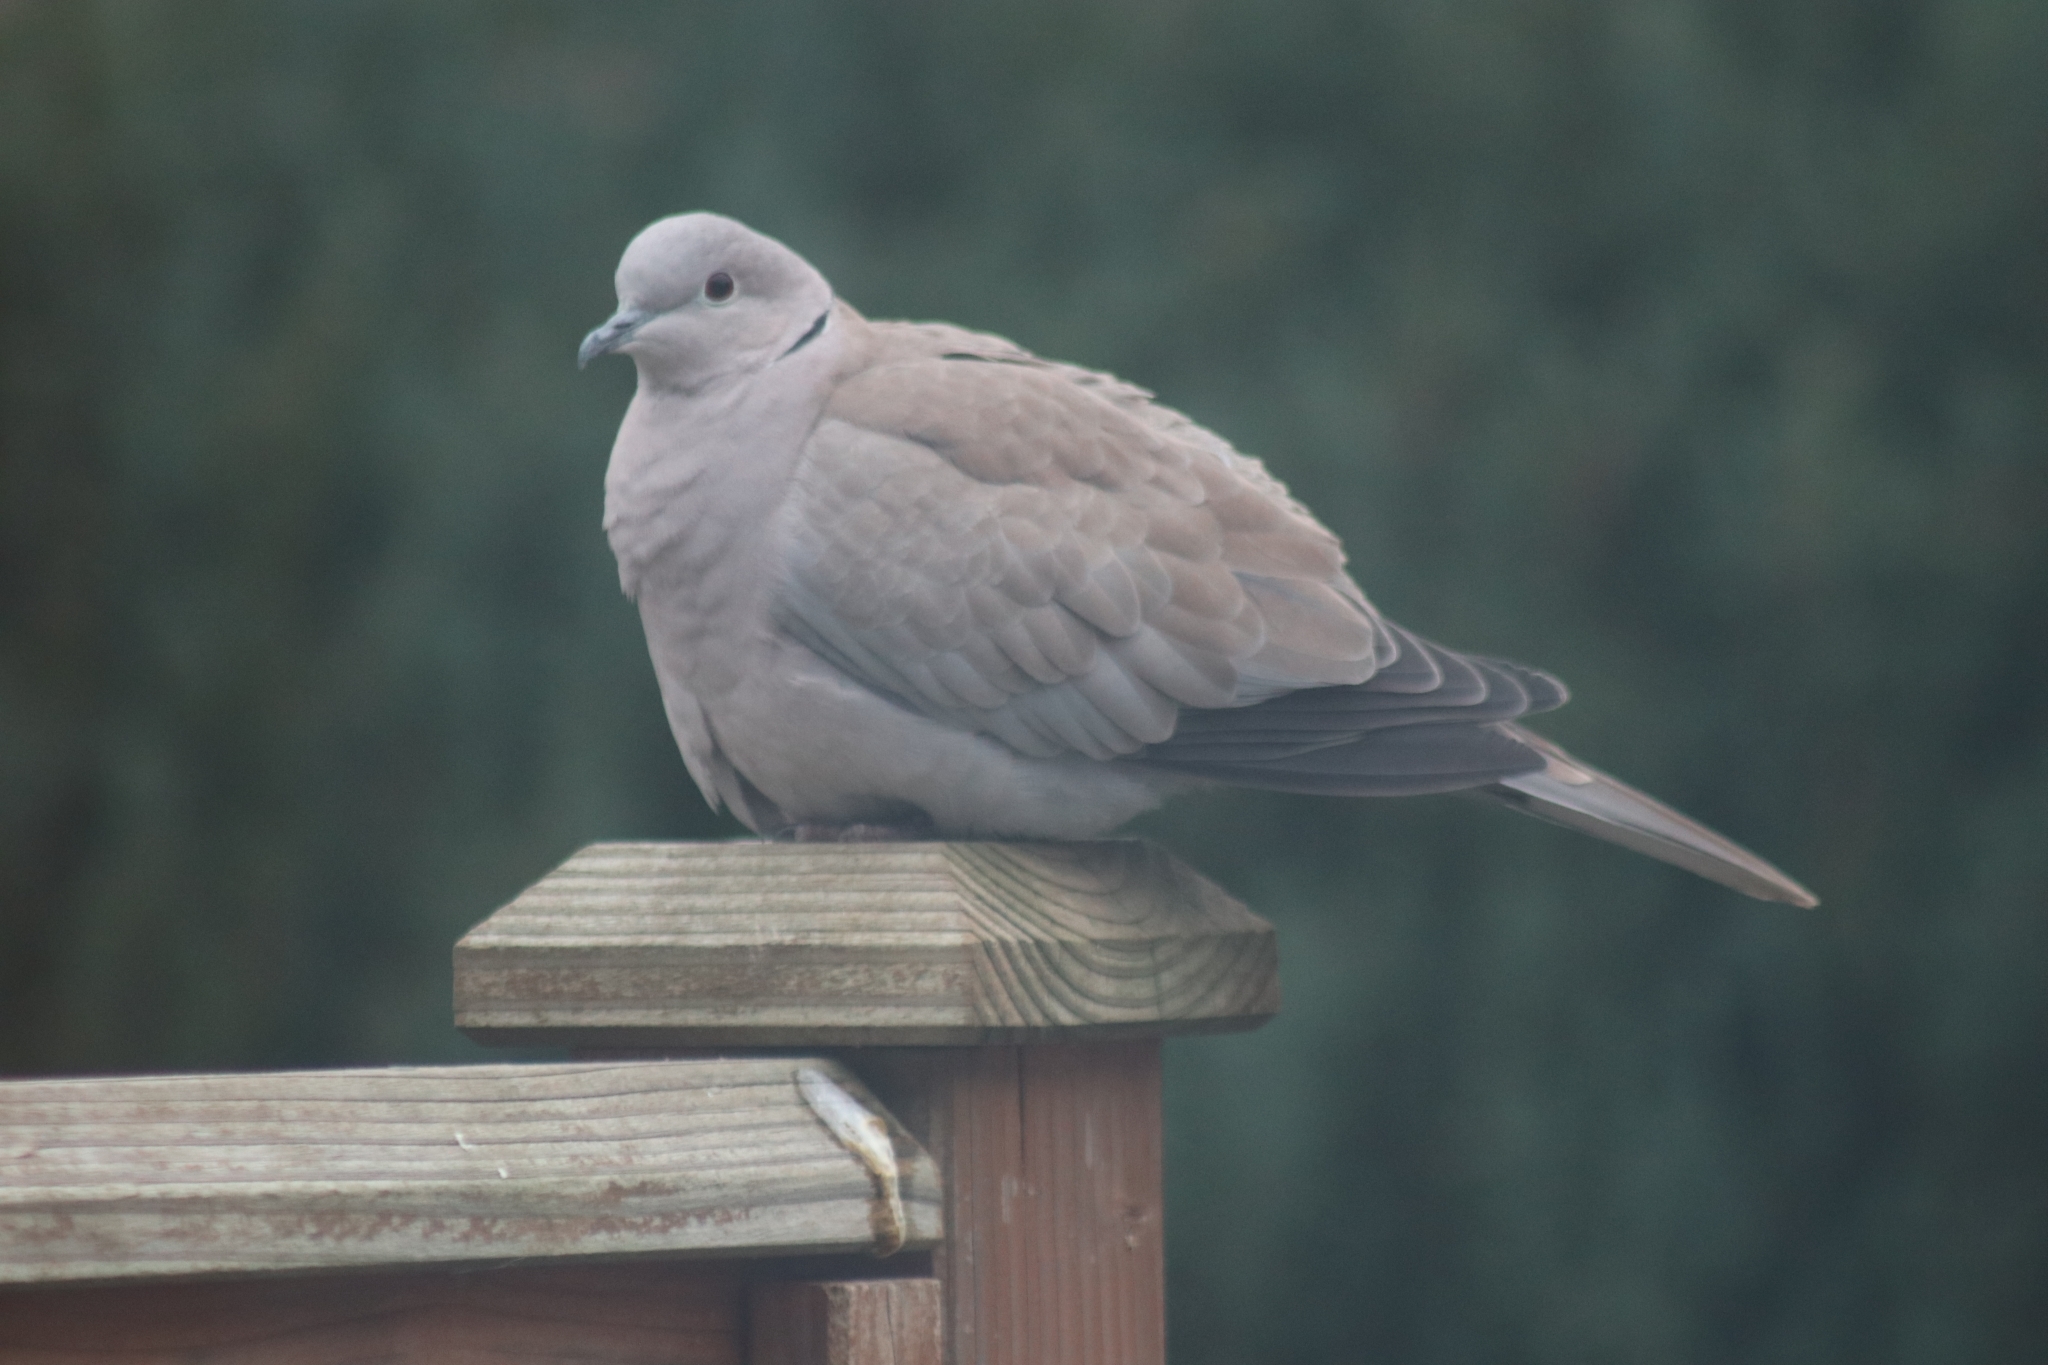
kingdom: Animalia
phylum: Chordata
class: Aves
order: Columbiformes
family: Columbidae
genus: Streptopelia
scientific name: Streptopelia decaocto
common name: Eurasian collared dove
